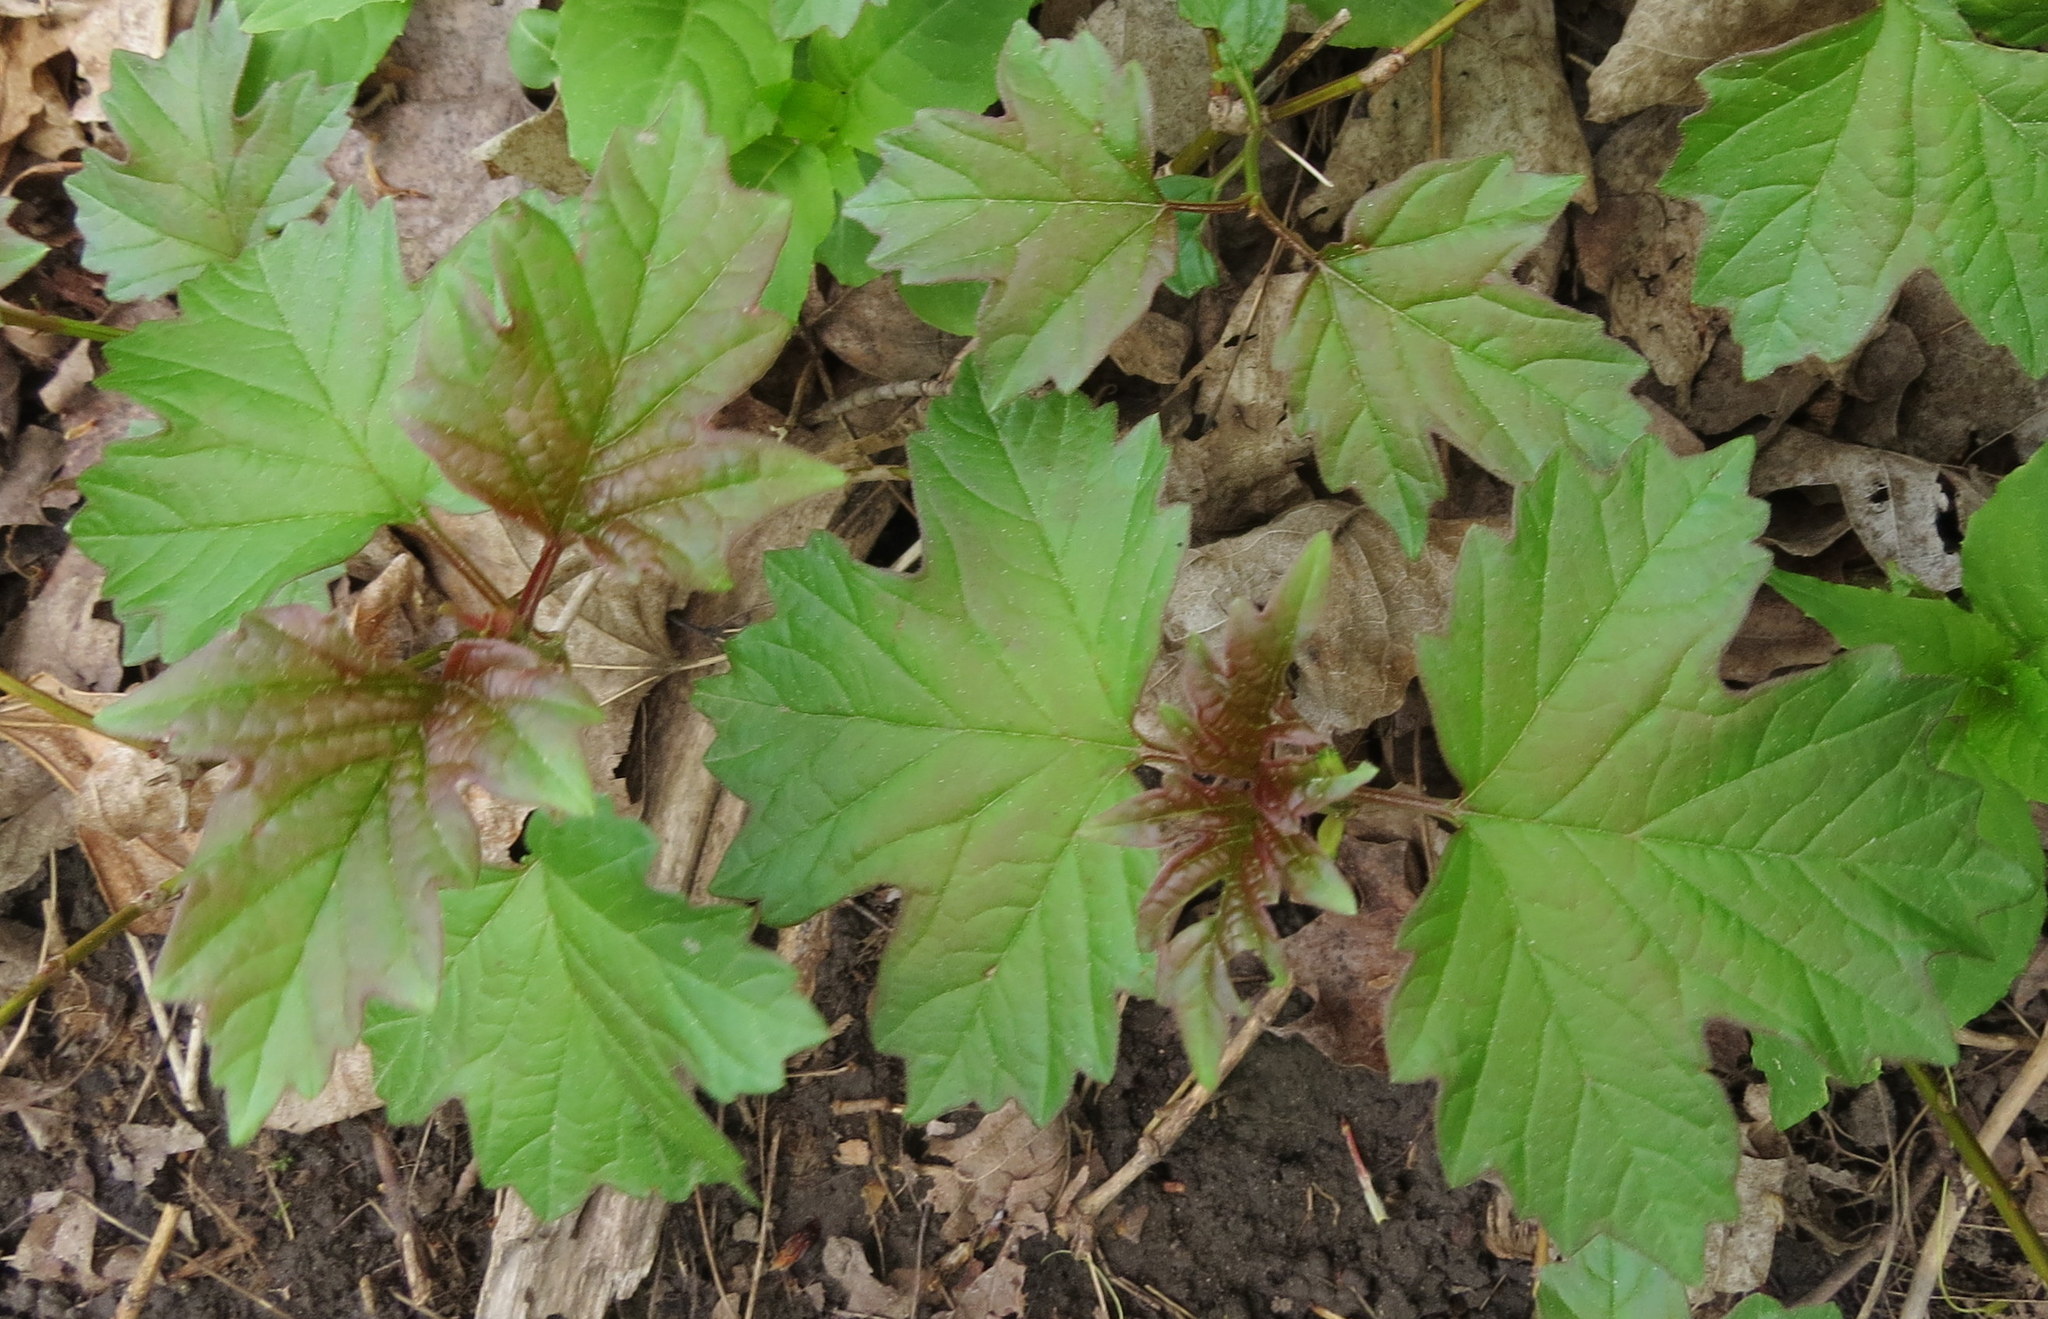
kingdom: Plantae
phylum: Tracheophyta
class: Magnoliopsida
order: Dipsacales
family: Viburnaceae
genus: Viburnum
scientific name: Viburnum opulus
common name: Guelder-rose
